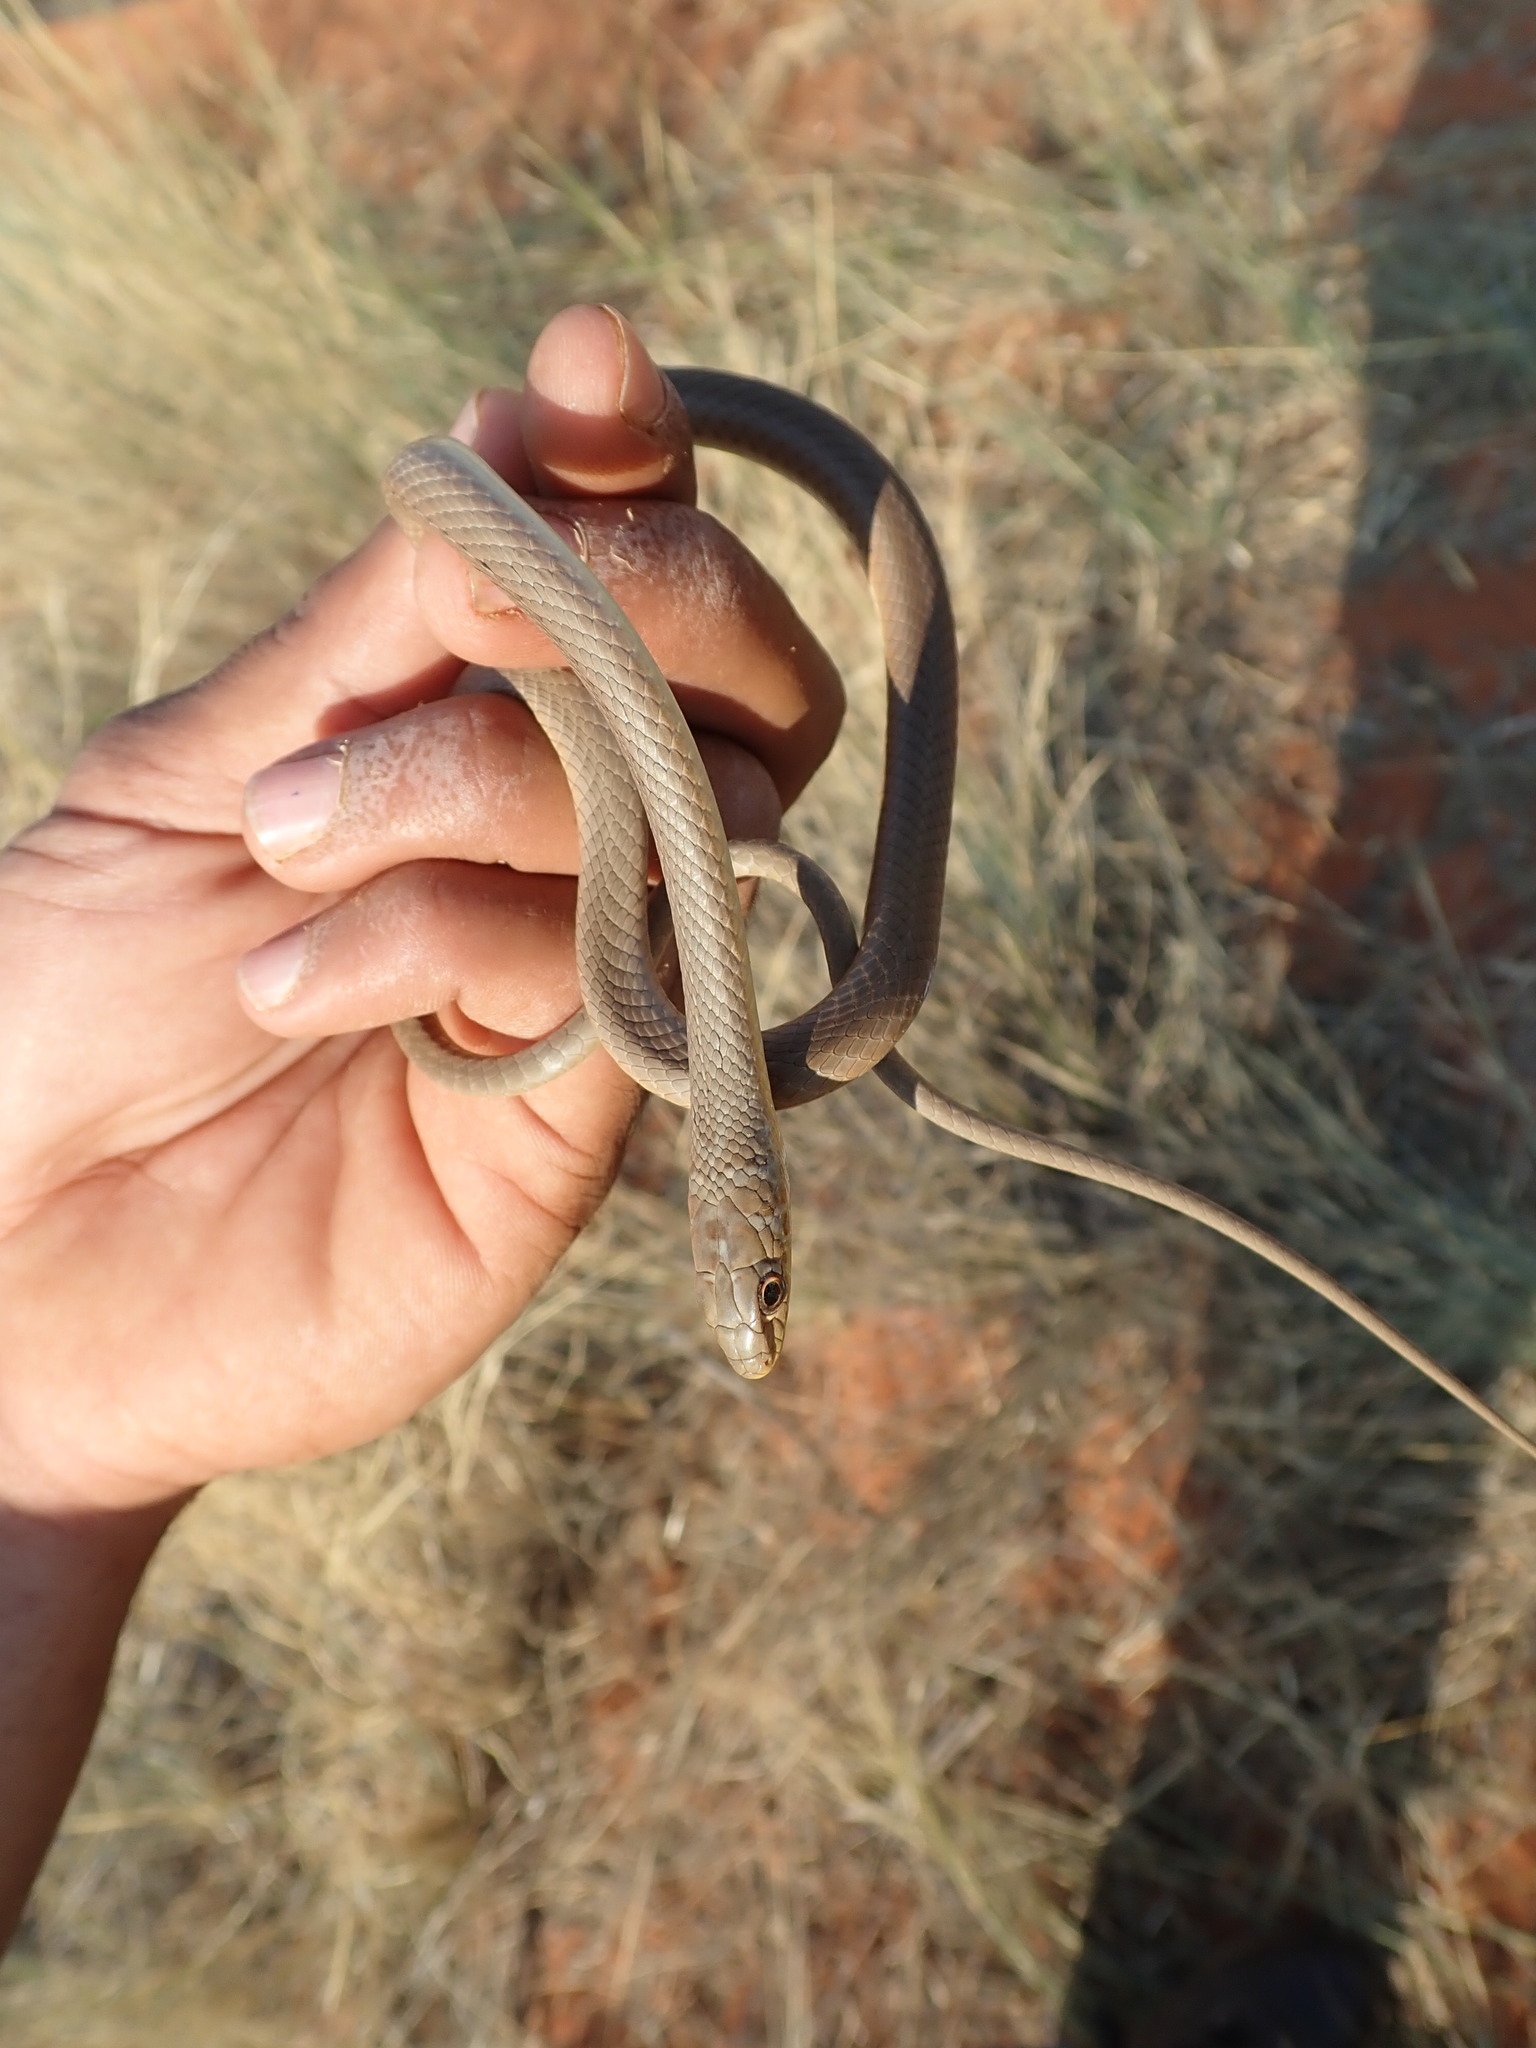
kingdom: Animalia
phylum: Chordata
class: Squamata
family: Psammophiidae
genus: Psammophis
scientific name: Psammophis brevirostris
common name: Short-snouted grass snake
